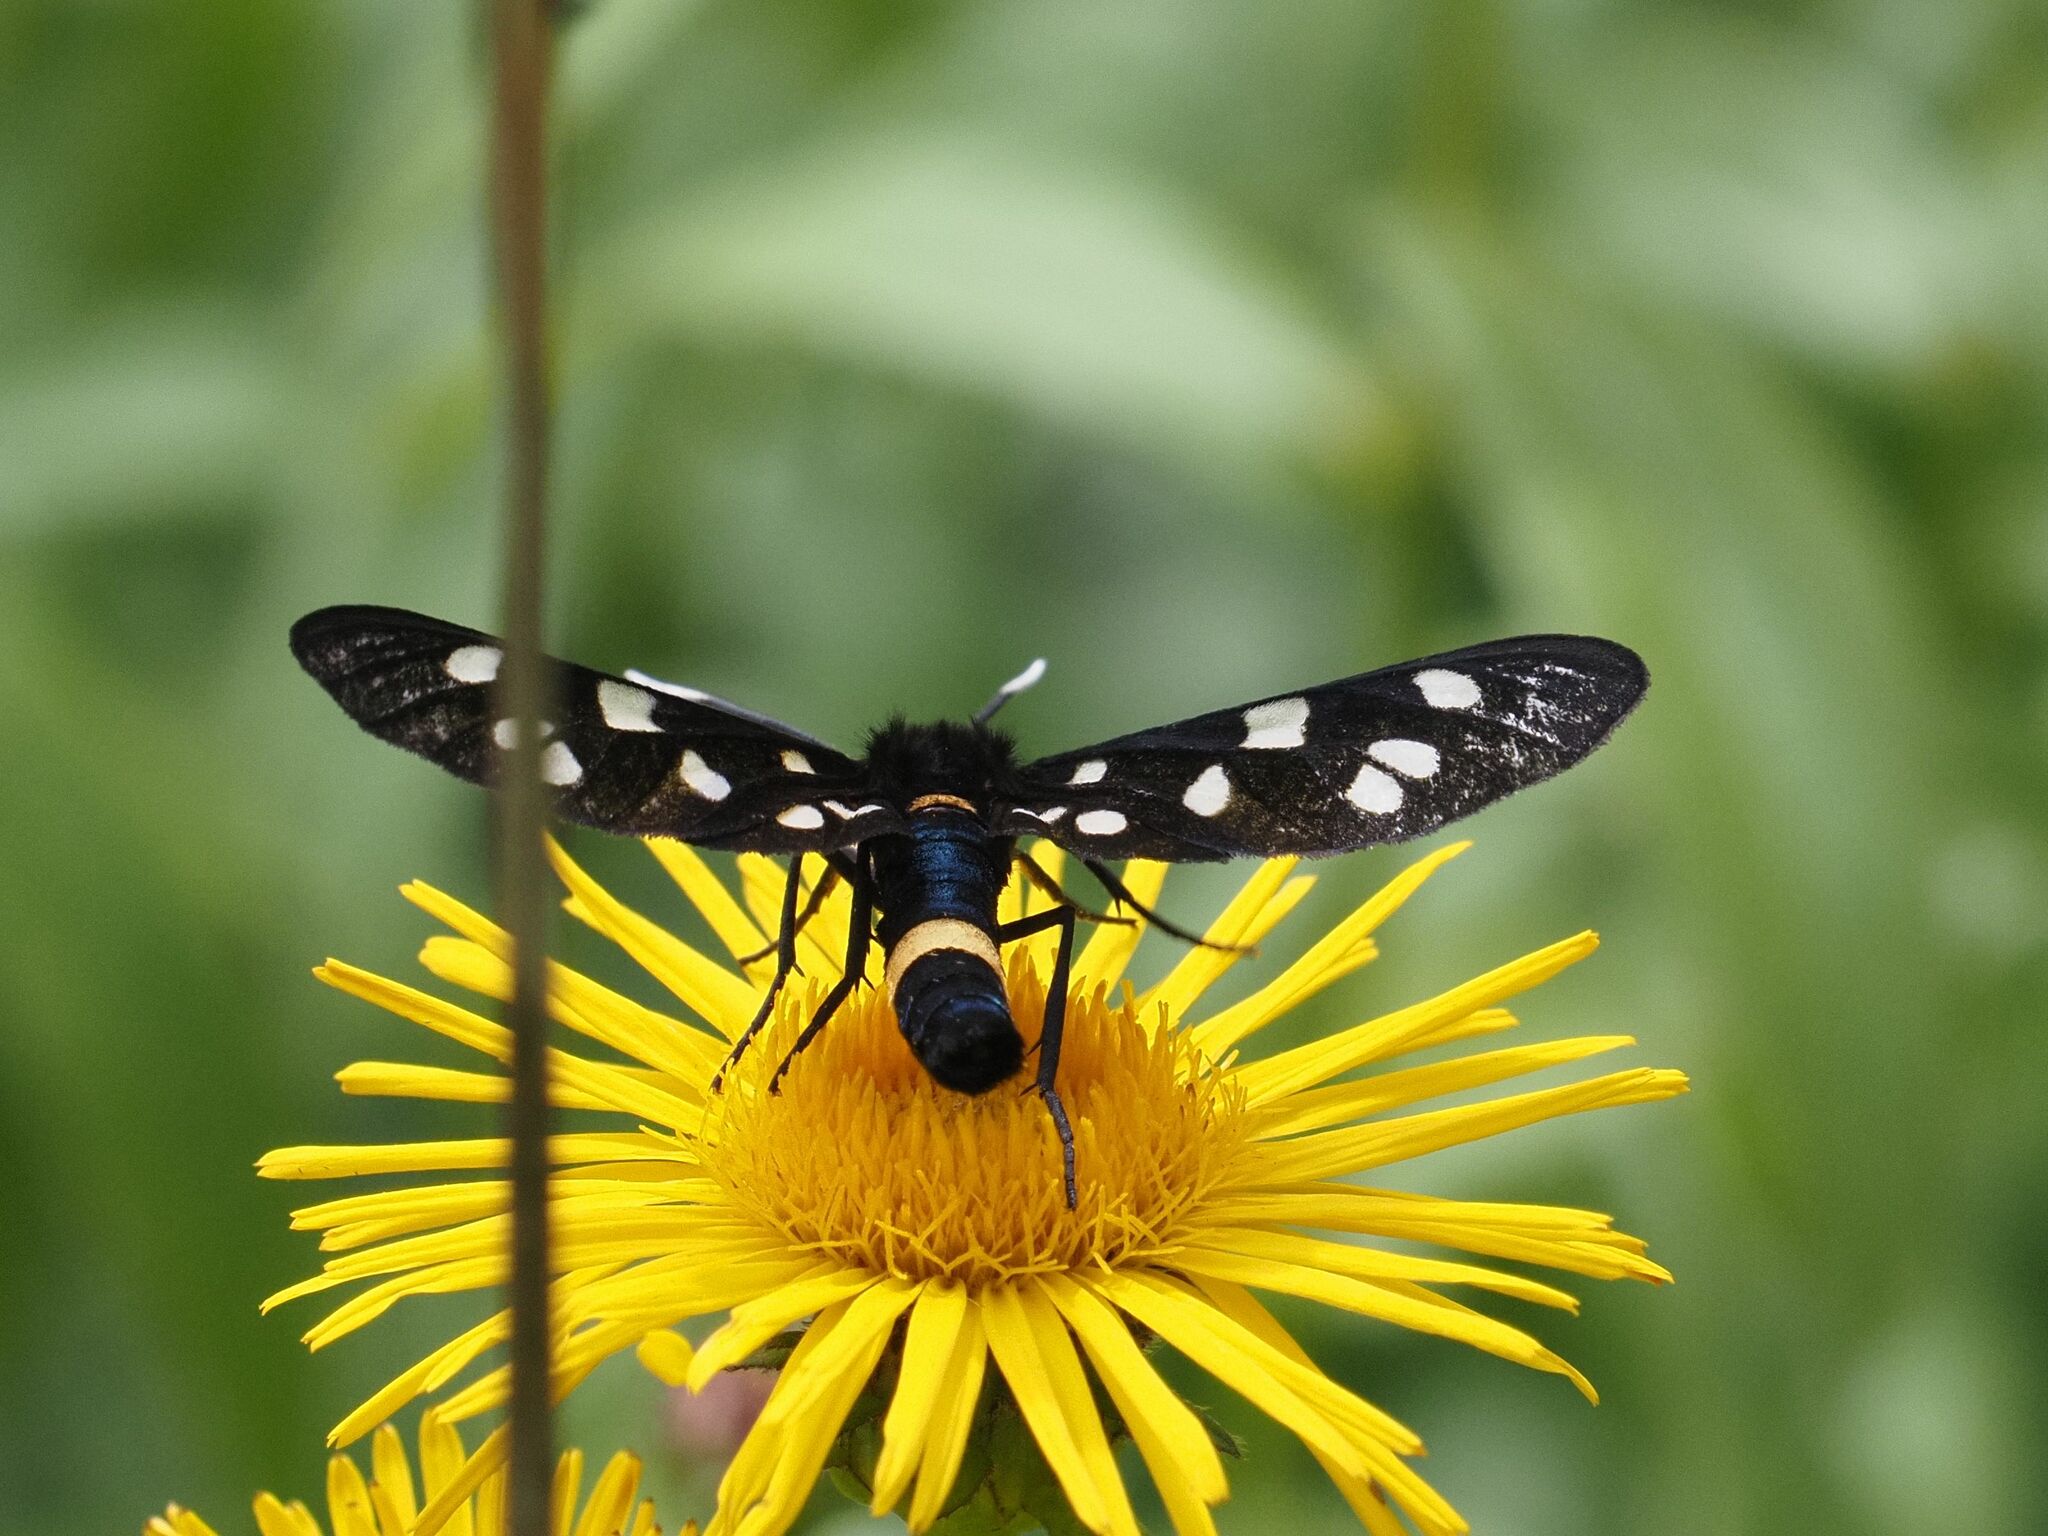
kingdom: Animalia
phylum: Arthropoda
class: Insecta
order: Lepidoptera
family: Erebidae
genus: Amata
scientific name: Amata phegea
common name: Nine-spotted
